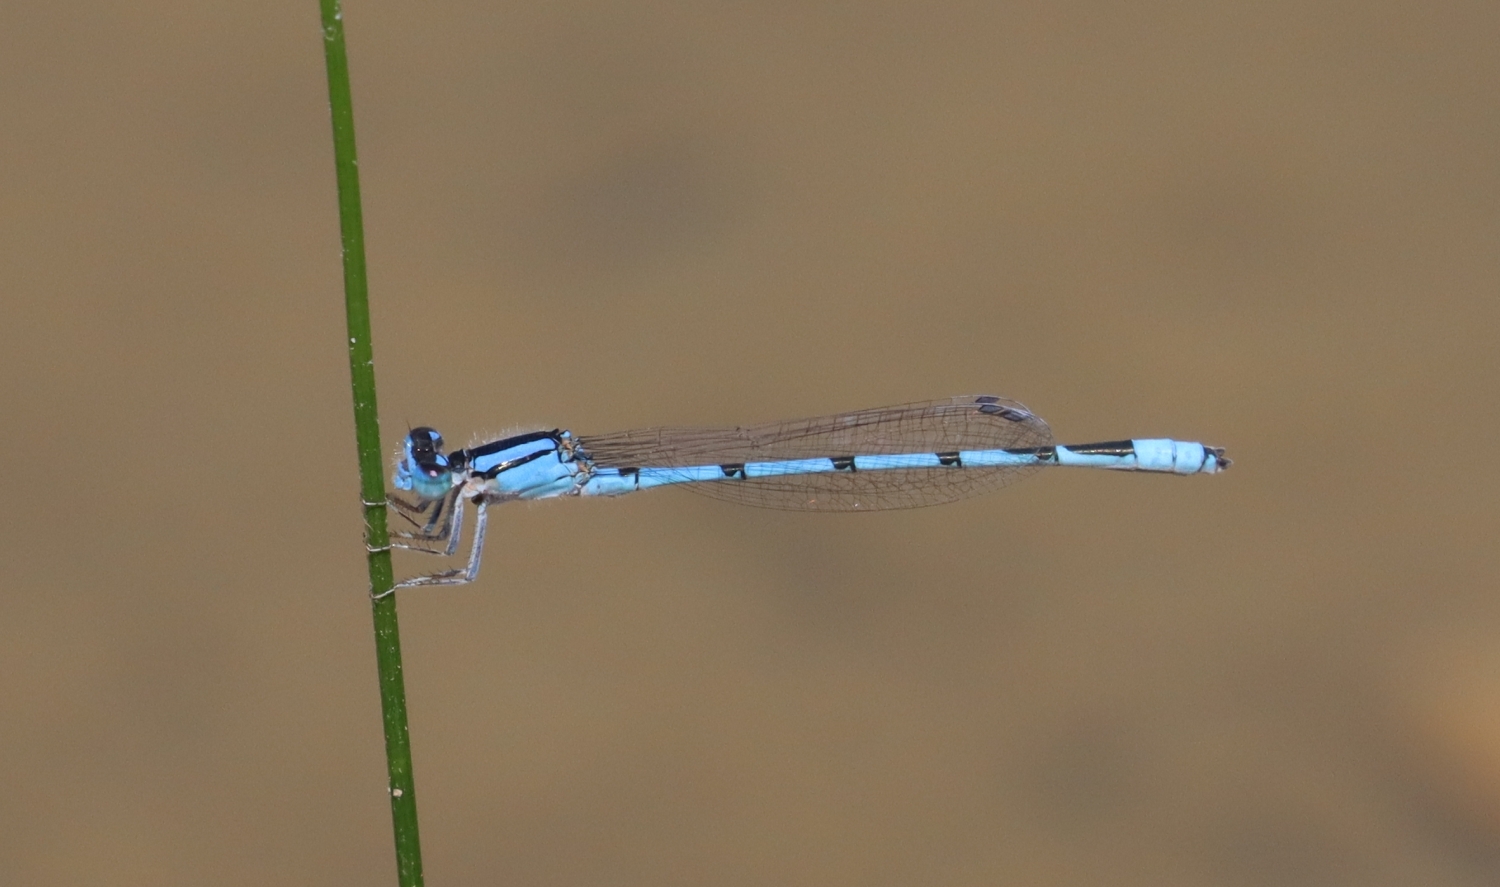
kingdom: Animalia
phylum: Arthropoda
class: Insecta
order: Odonata
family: Coenagrionidae
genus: Enallagma
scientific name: Enallagma civile
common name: Damselfly
